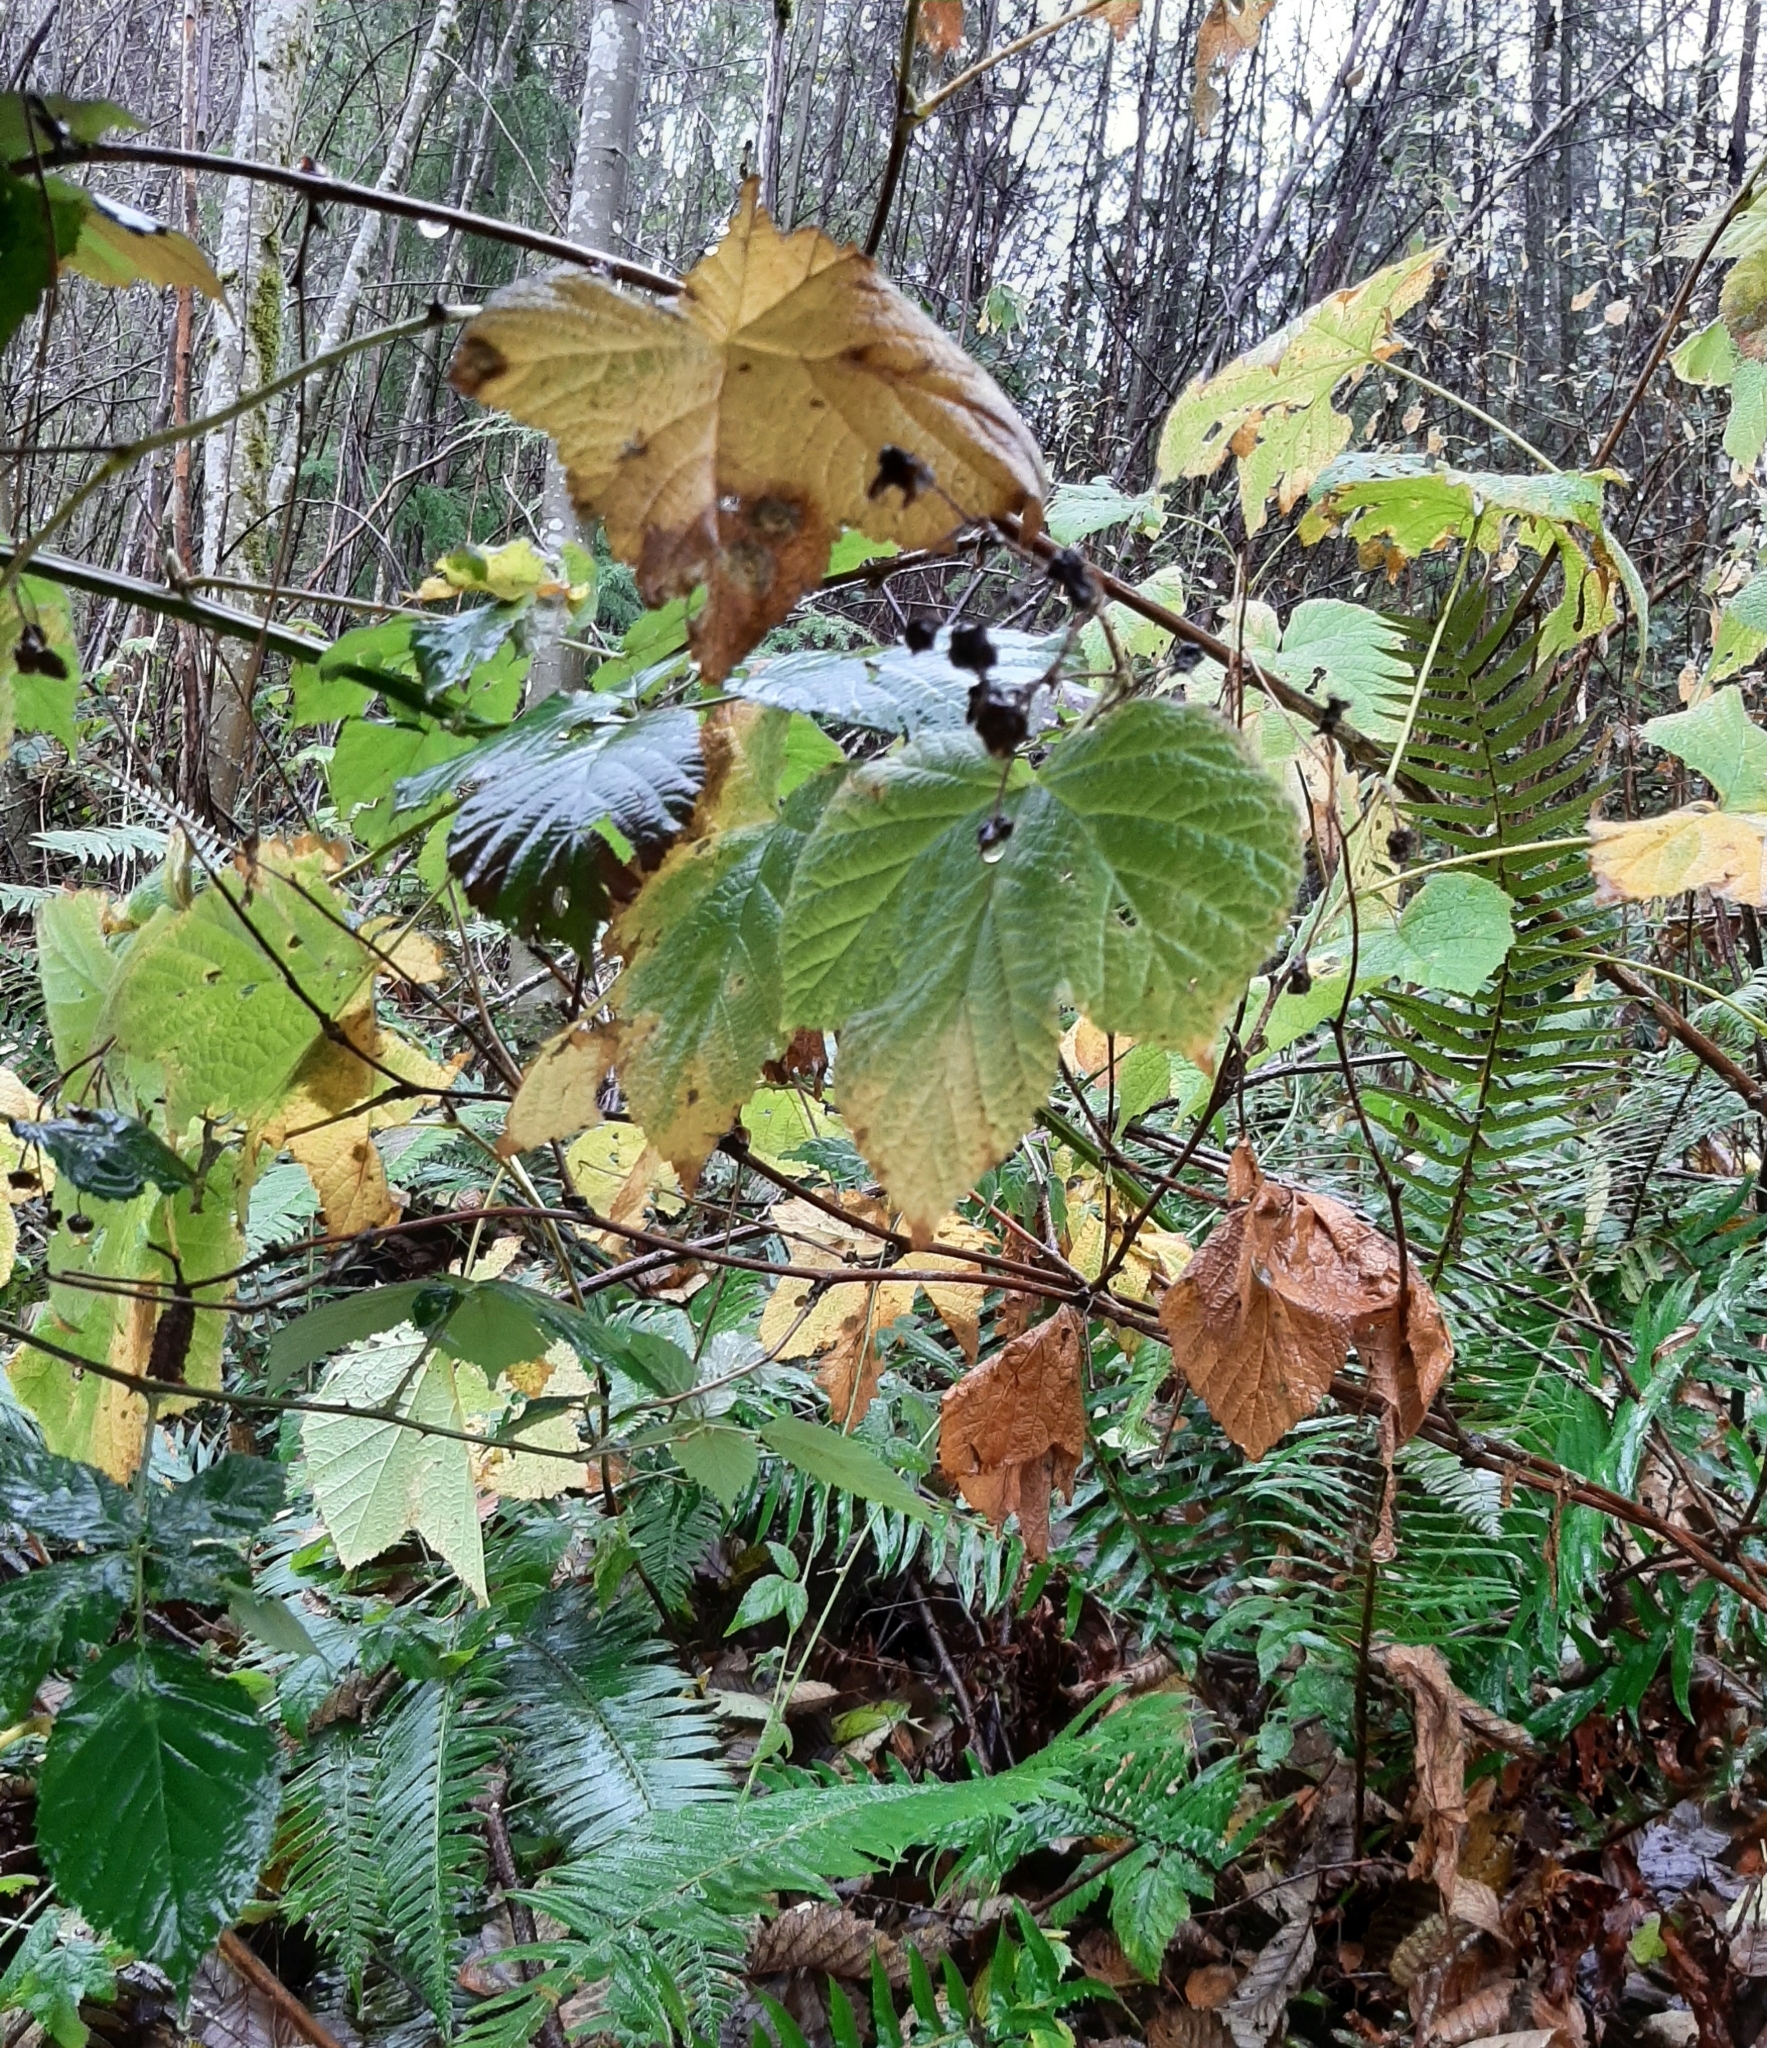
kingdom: Plantae
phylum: Tracheophyta
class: Magnoliopsida
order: Rosales
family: Rosaceae
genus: Rubus
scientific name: Rubus parviflorus
